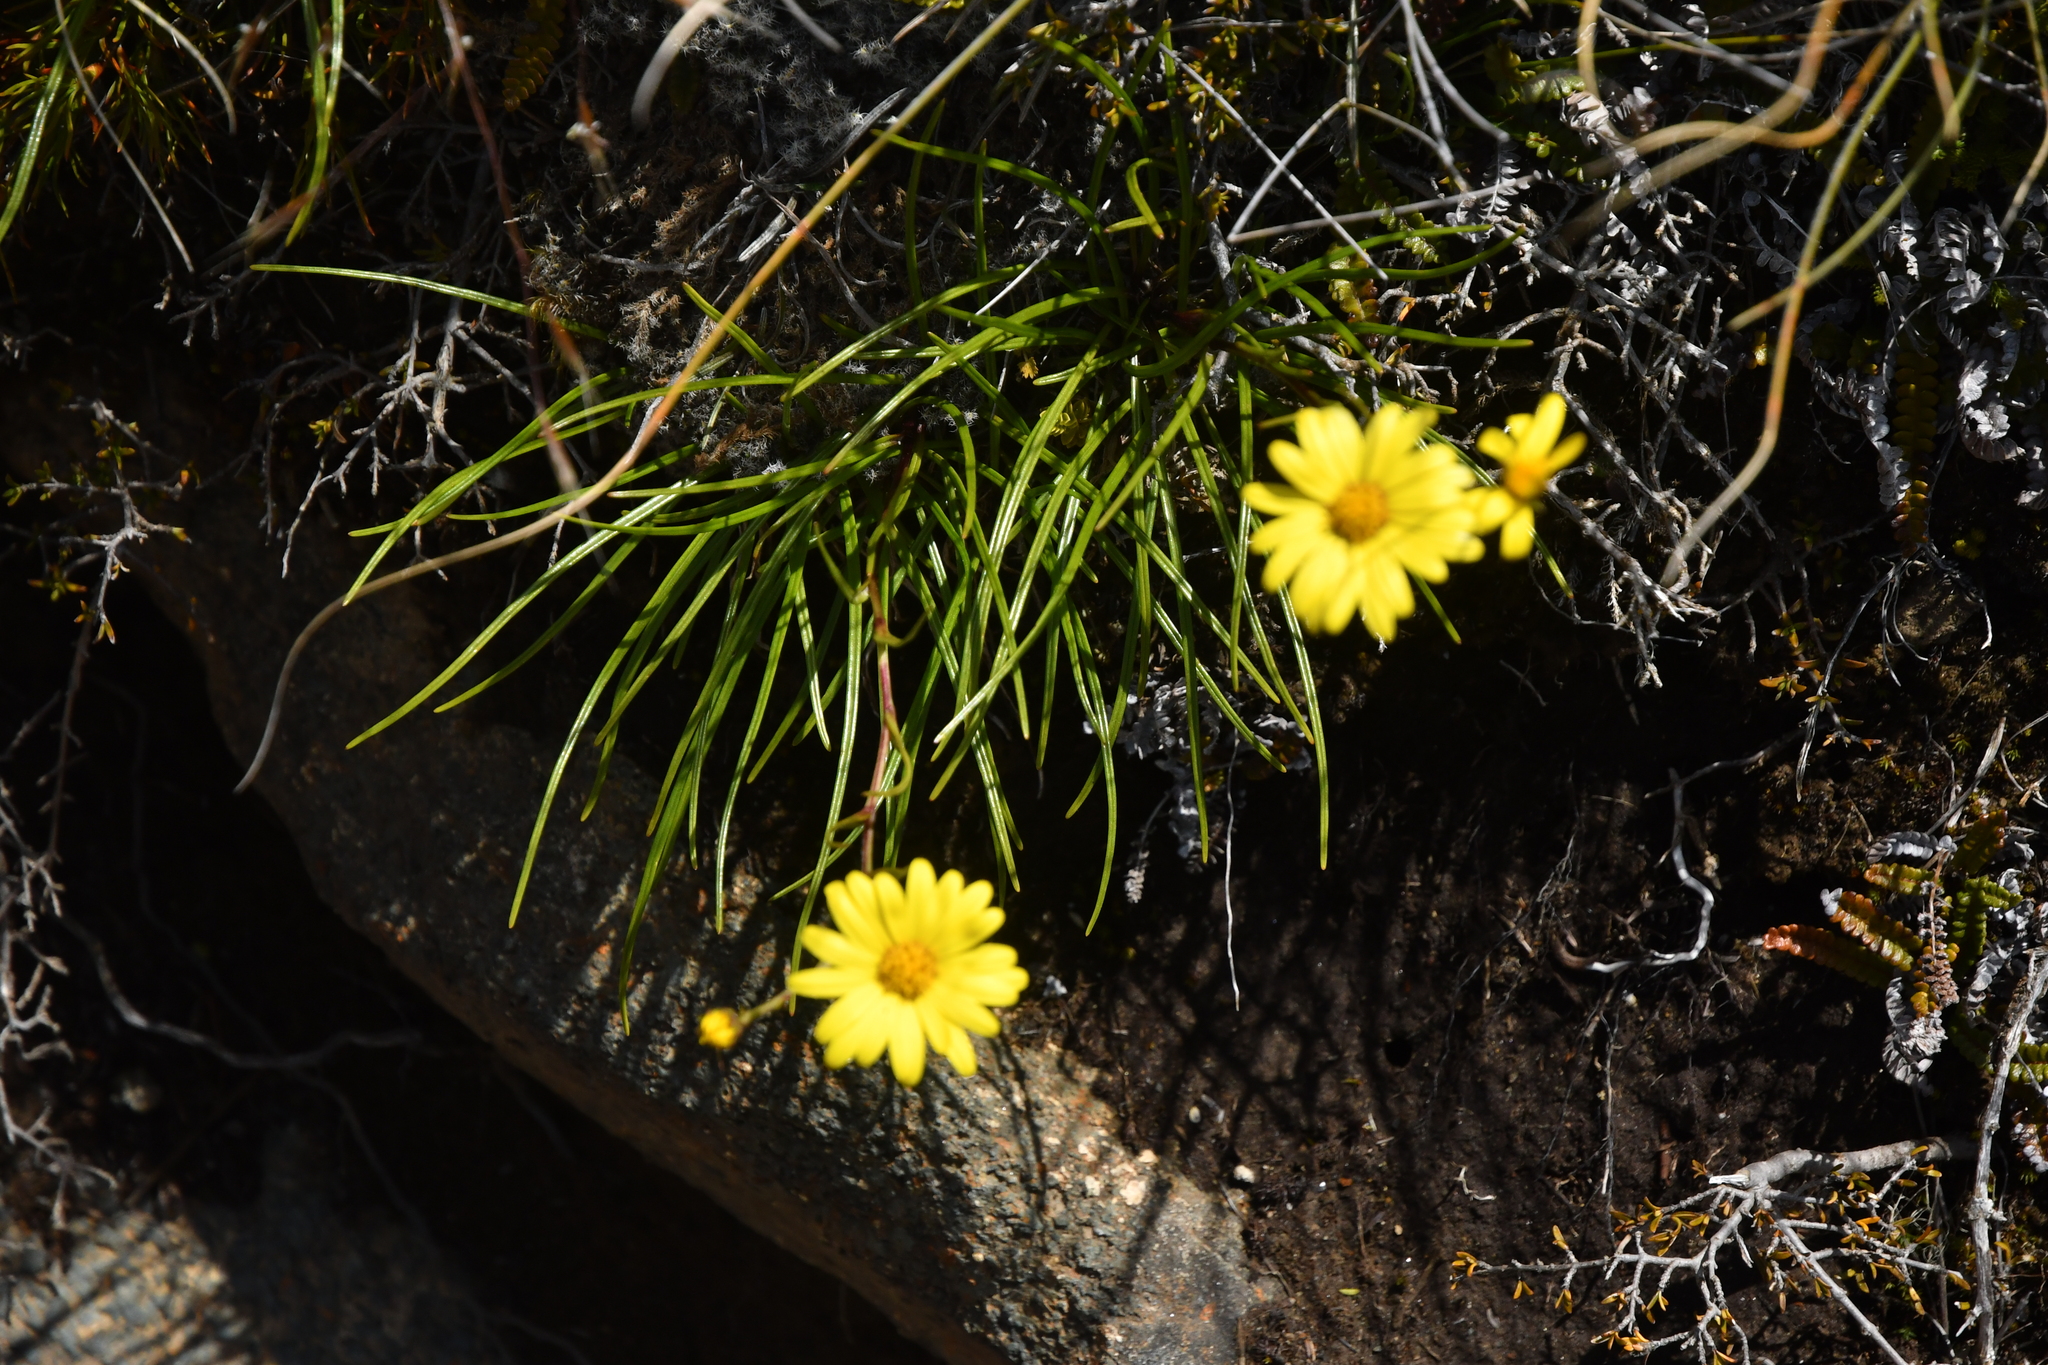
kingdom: Plantae
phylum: Tracheophyta
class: Magnoliopsida
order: Asterales
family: Asteraceae
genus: Dolichoglottis
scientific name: Dolichoglottis lyallii
